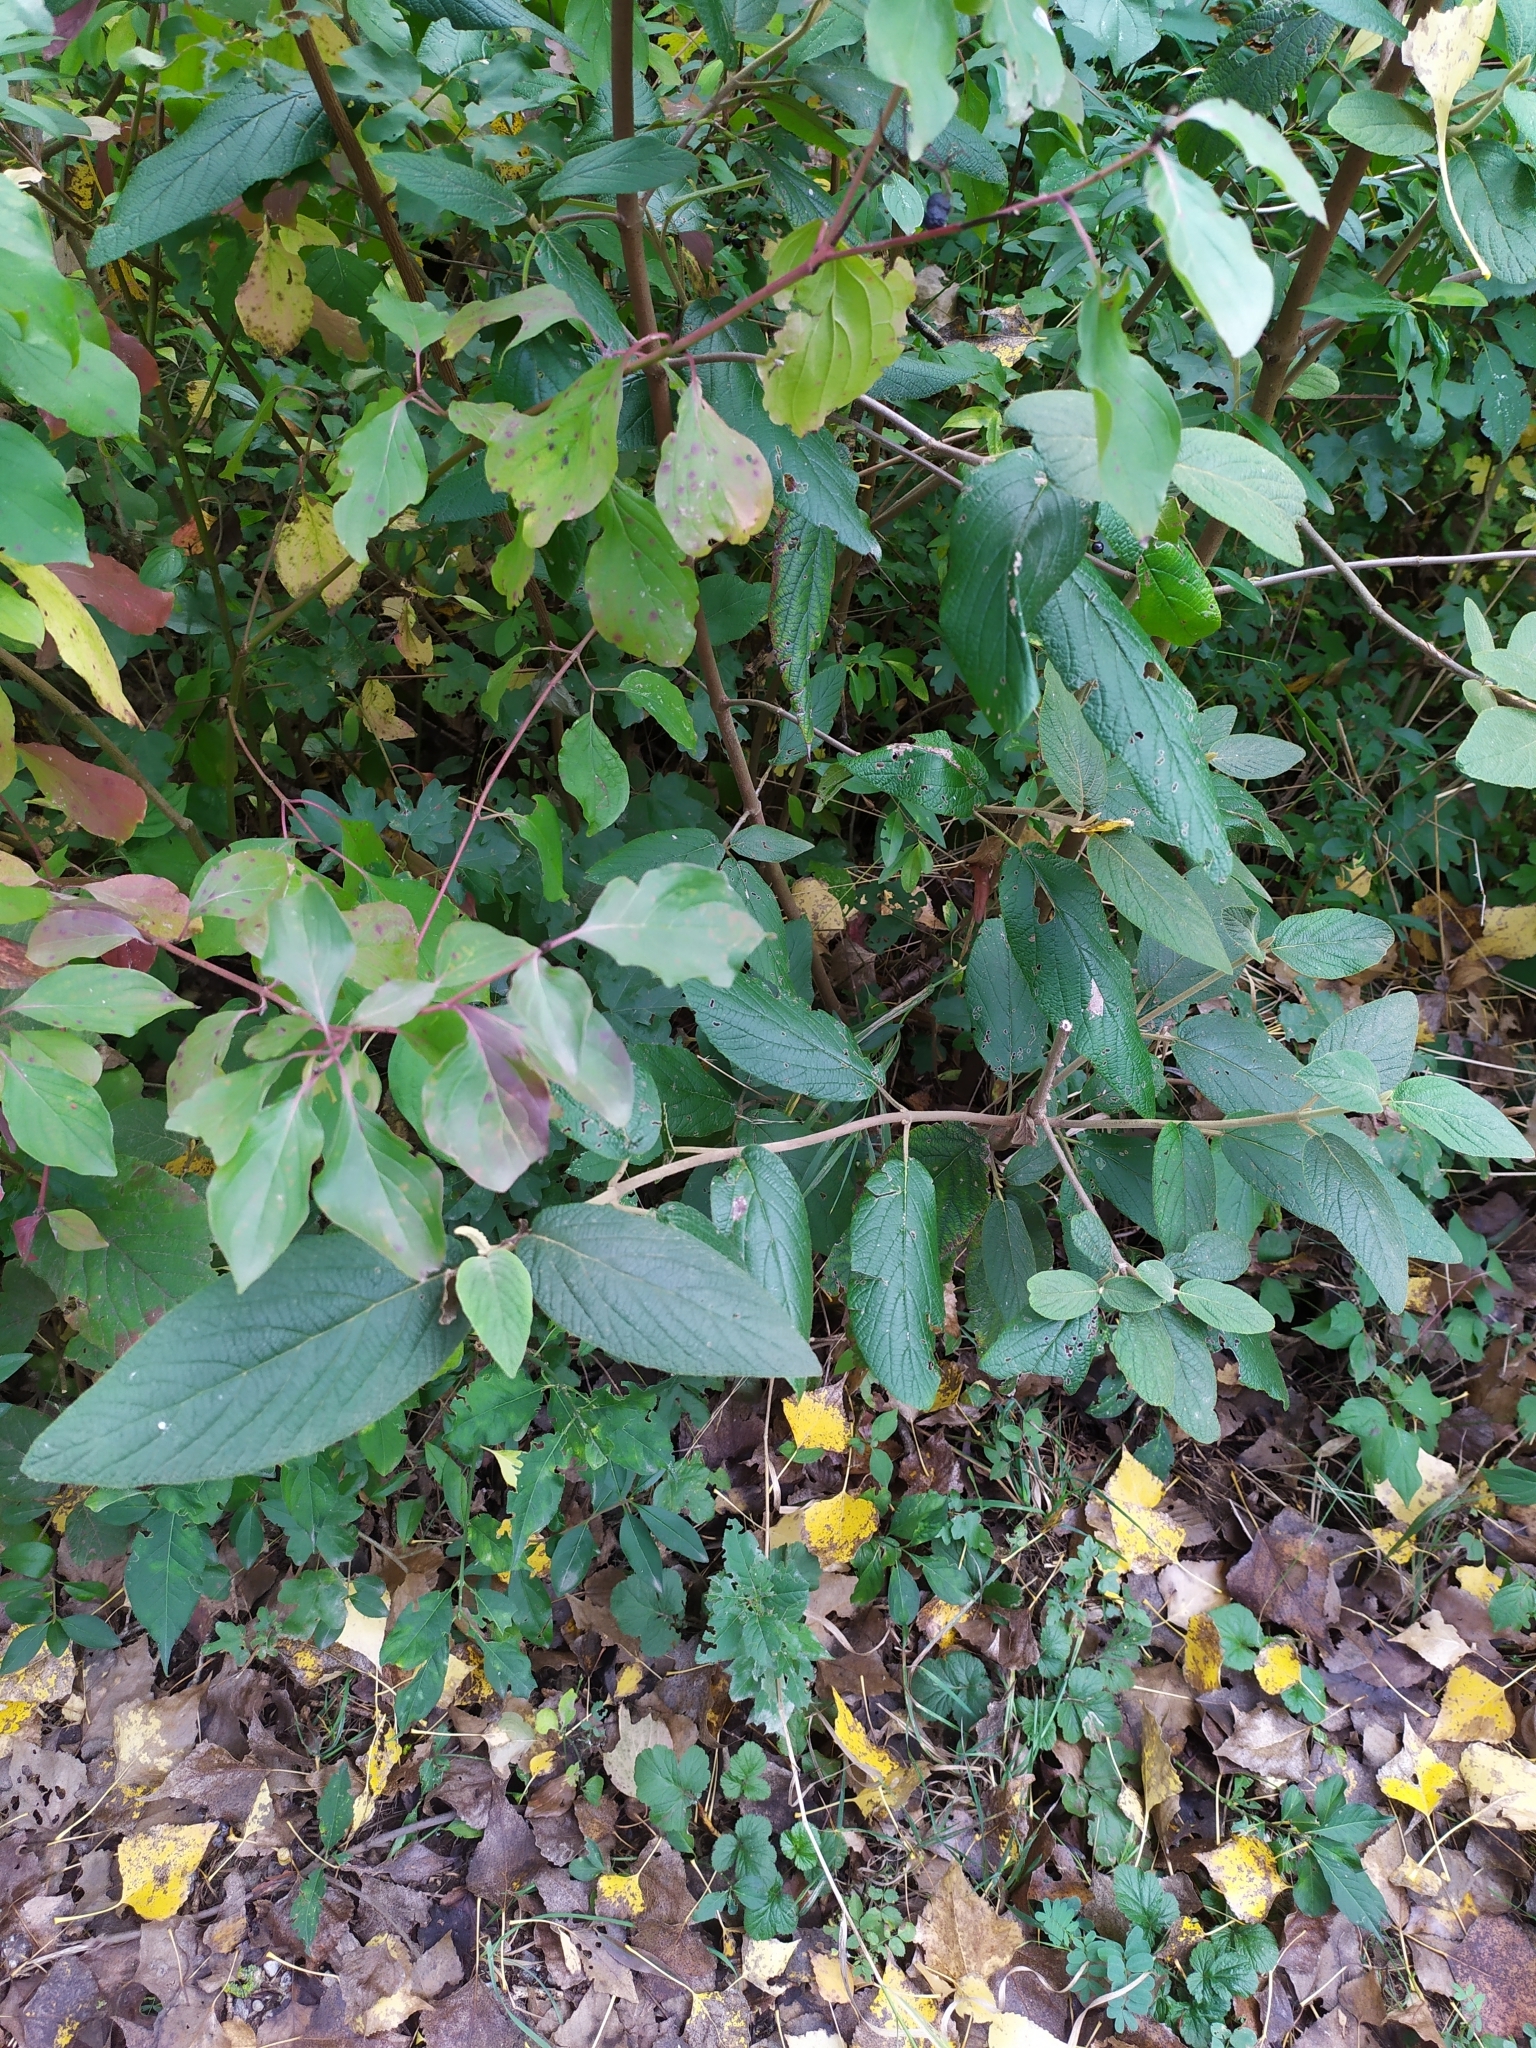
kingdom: Plantae
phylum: Tracheophyta
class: Magnoliopsida
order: Dipsacales
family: Viburnaceae
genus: Viburnum
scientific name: Viburnum rhytidophylloides
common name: Viburnum
